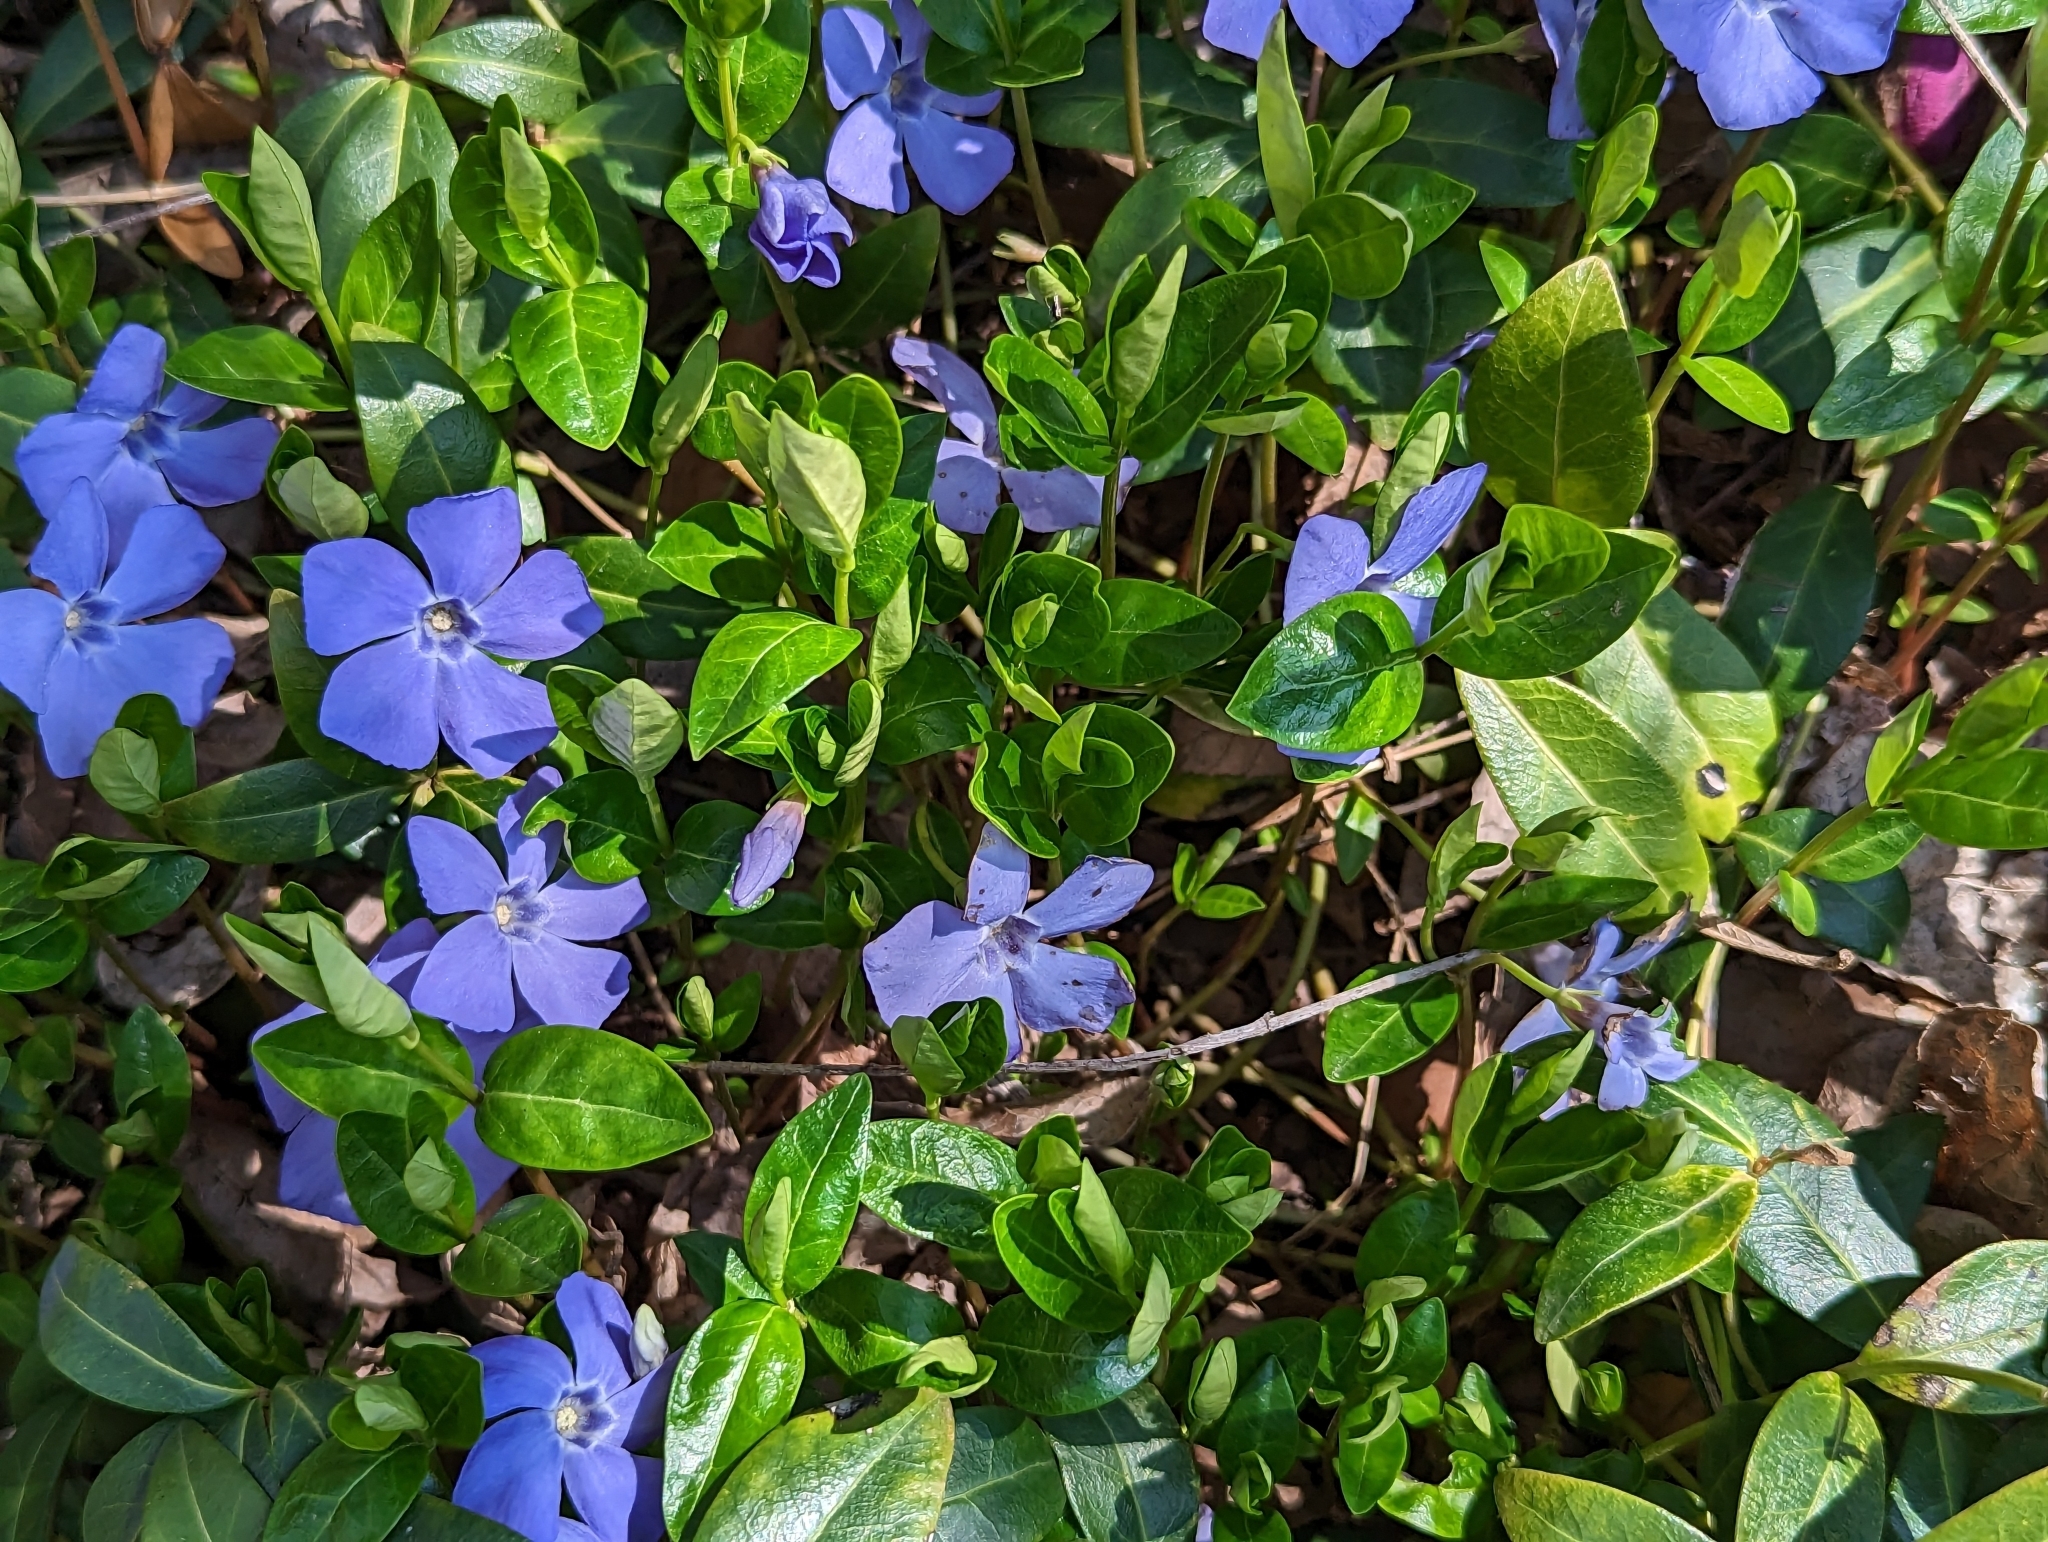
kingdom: Plantae
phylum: Tracheophyta
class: Magnoliopsida
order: Gentianales
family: Apocynaceae
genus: Vinca
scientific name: Vinca minor
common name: Lesser periwinkle
